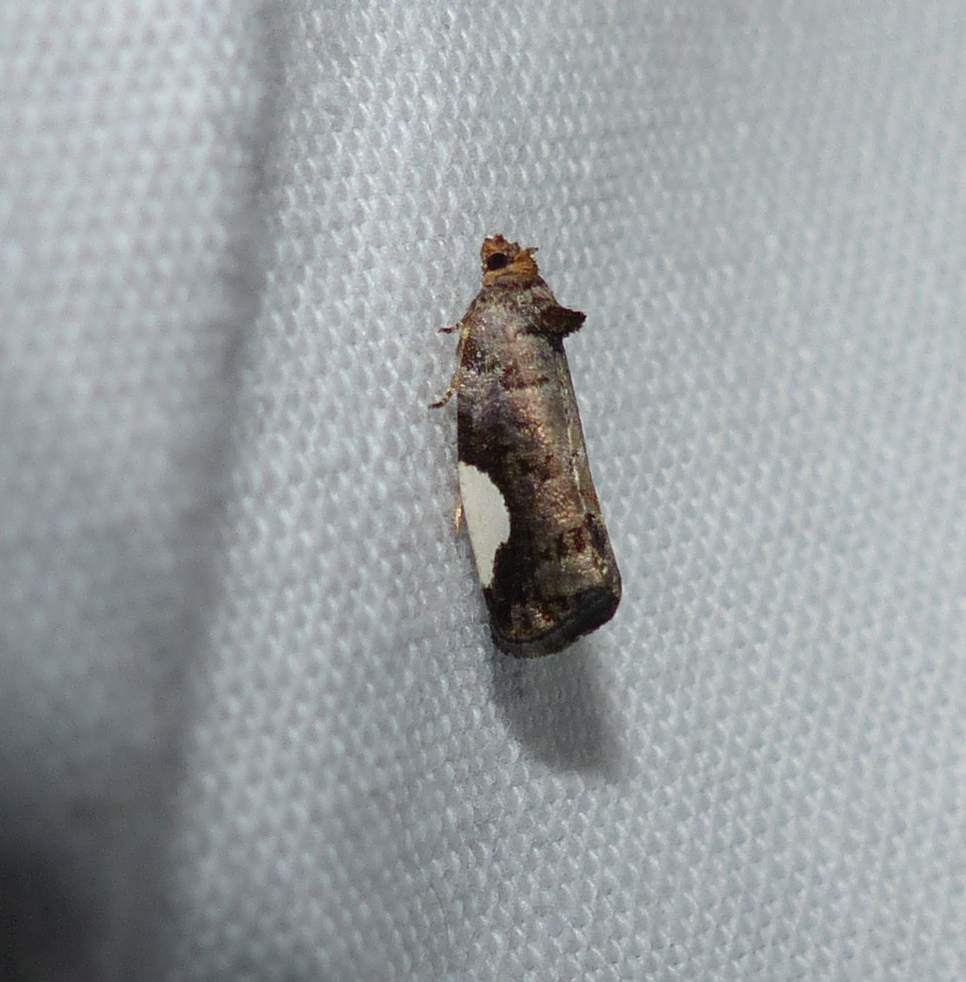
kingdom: Animalia
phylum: Arthropoda
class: Insecta
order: Lepidoptera
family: Tortricidae
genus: Hedya
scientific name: Hedya chionosema
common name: White-spotted hedya moth
